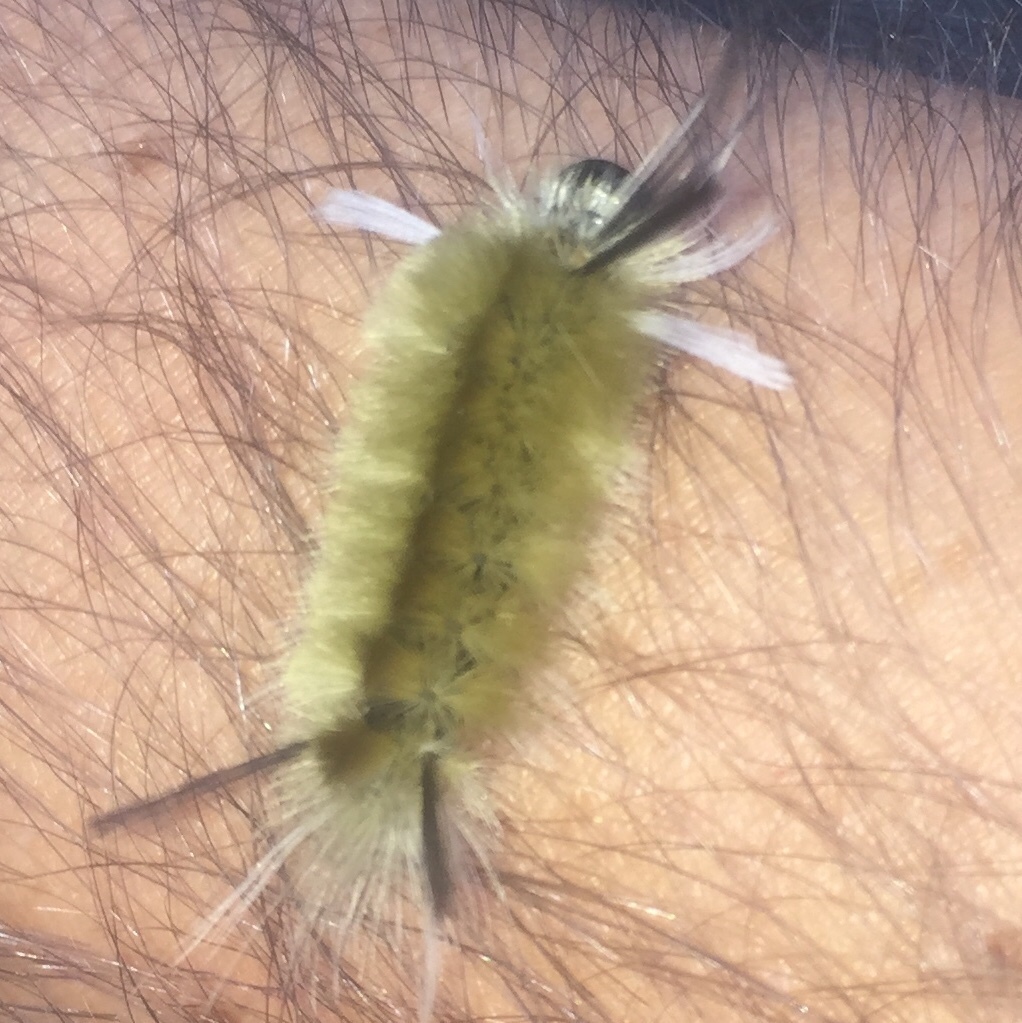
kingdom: Animalia
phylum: Arthropoda
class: Insecta
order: Lepidoptera
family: Erebidae
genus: Halysidota
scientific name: Halysidota tessellaris
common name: Banded tussock moth
